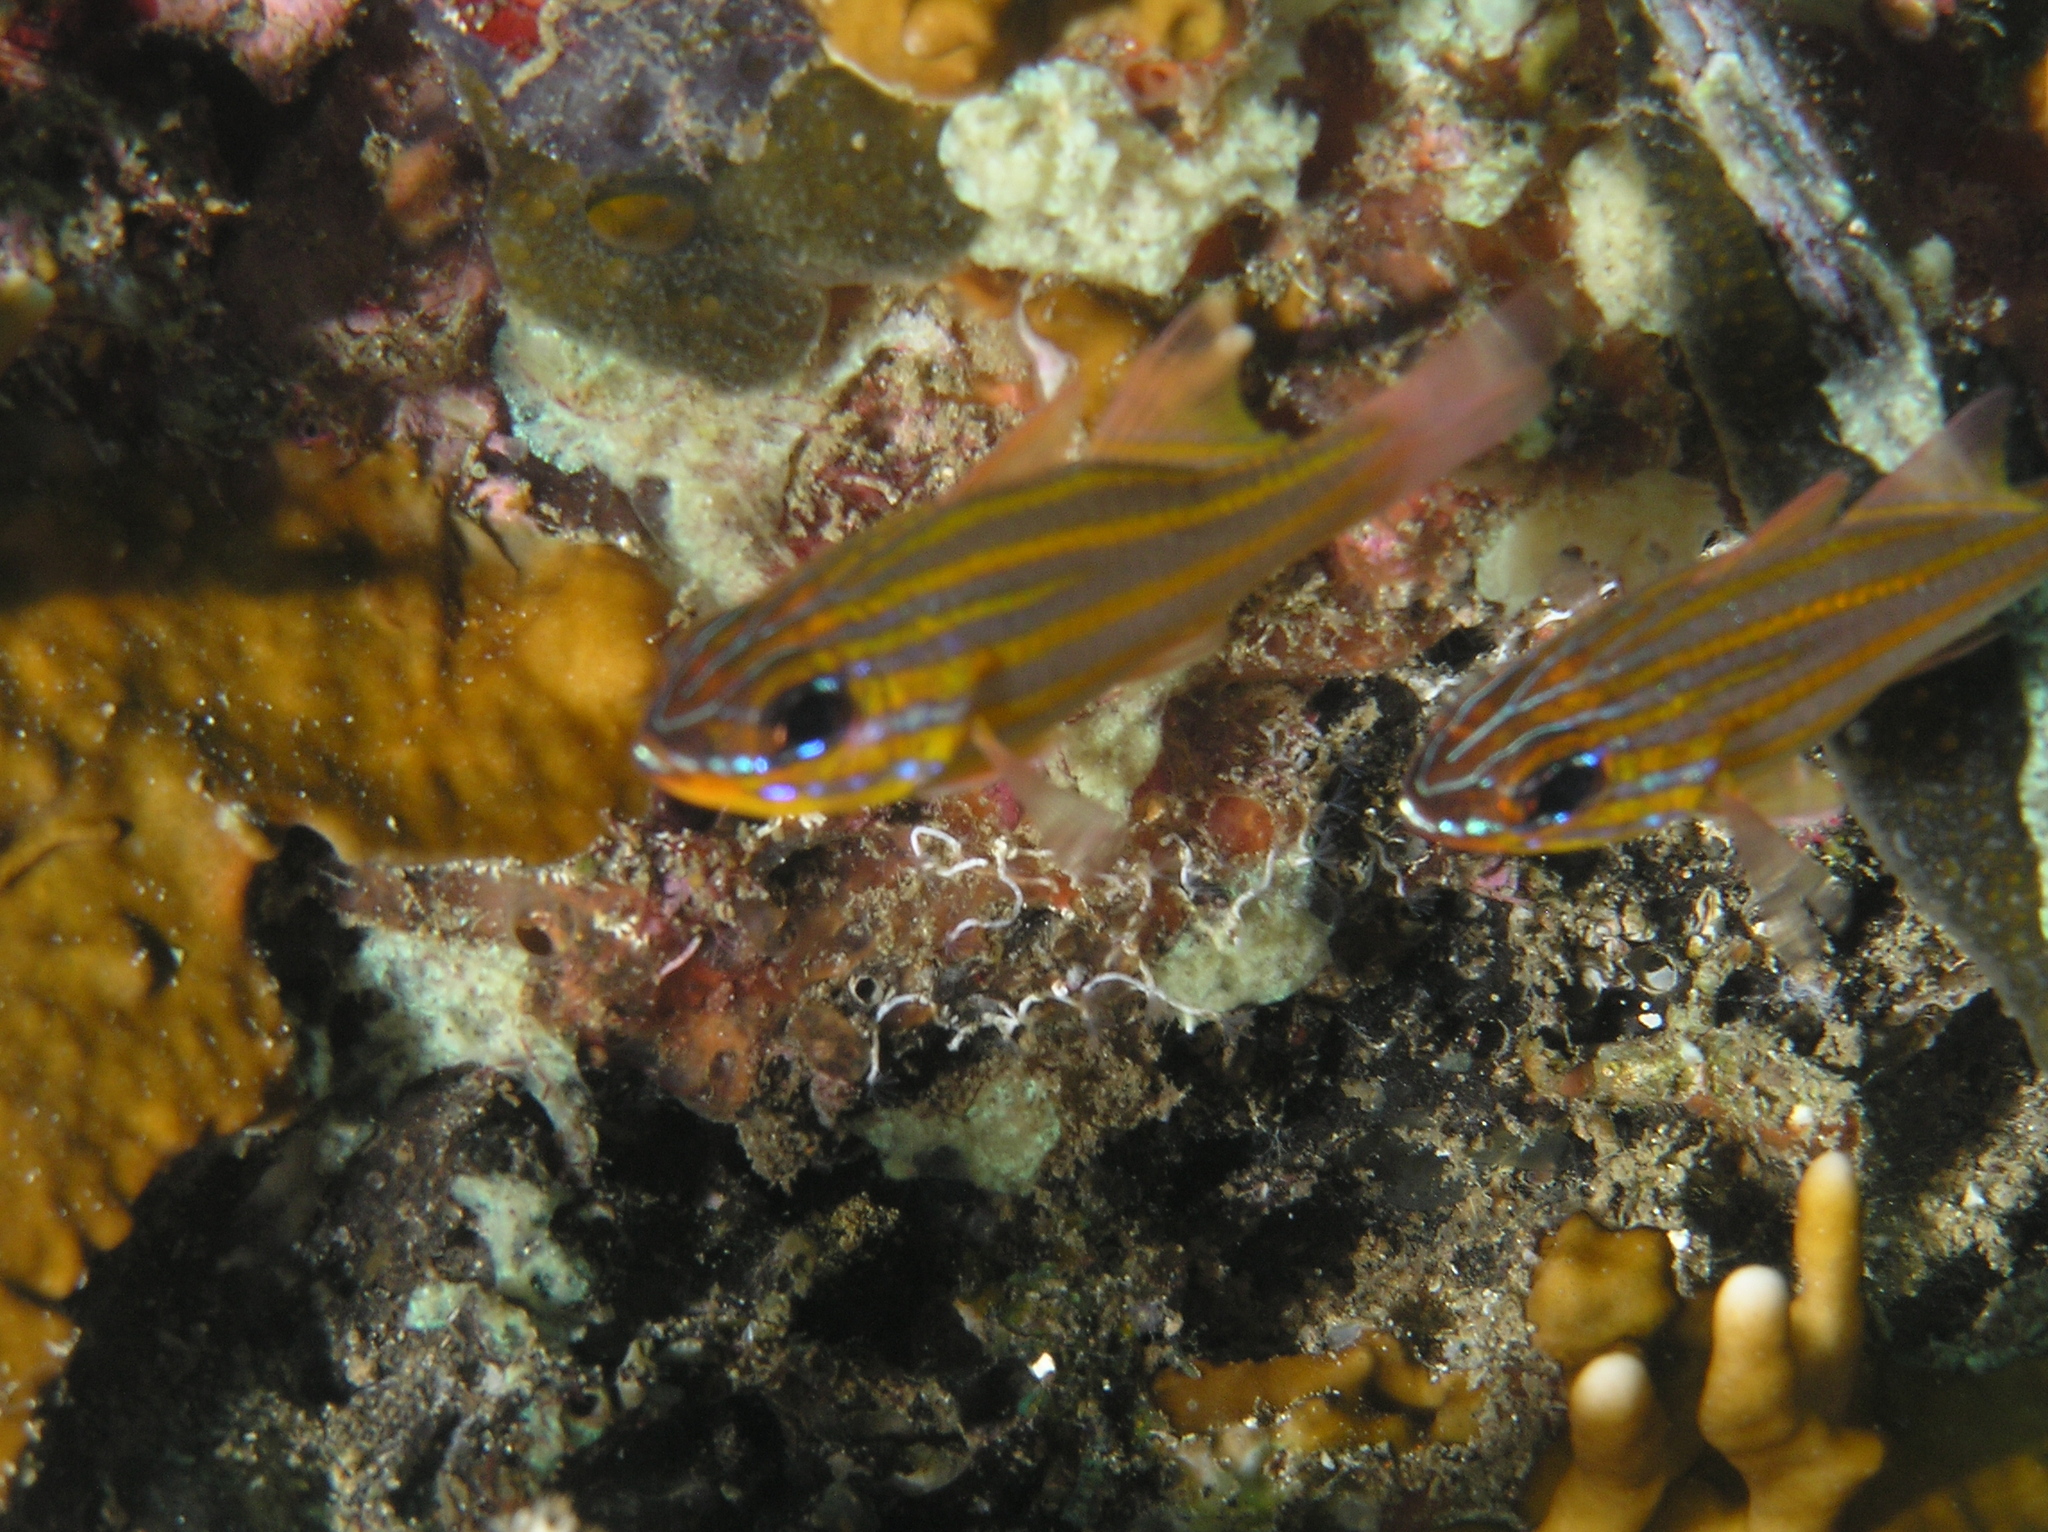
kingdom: Animalia
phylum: Chordata
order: Perciformes
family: Apogonidae
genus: Ostorhinchus
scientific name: Ostorhinchus cyanosoma
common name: Yellow-striped cardinalfish
